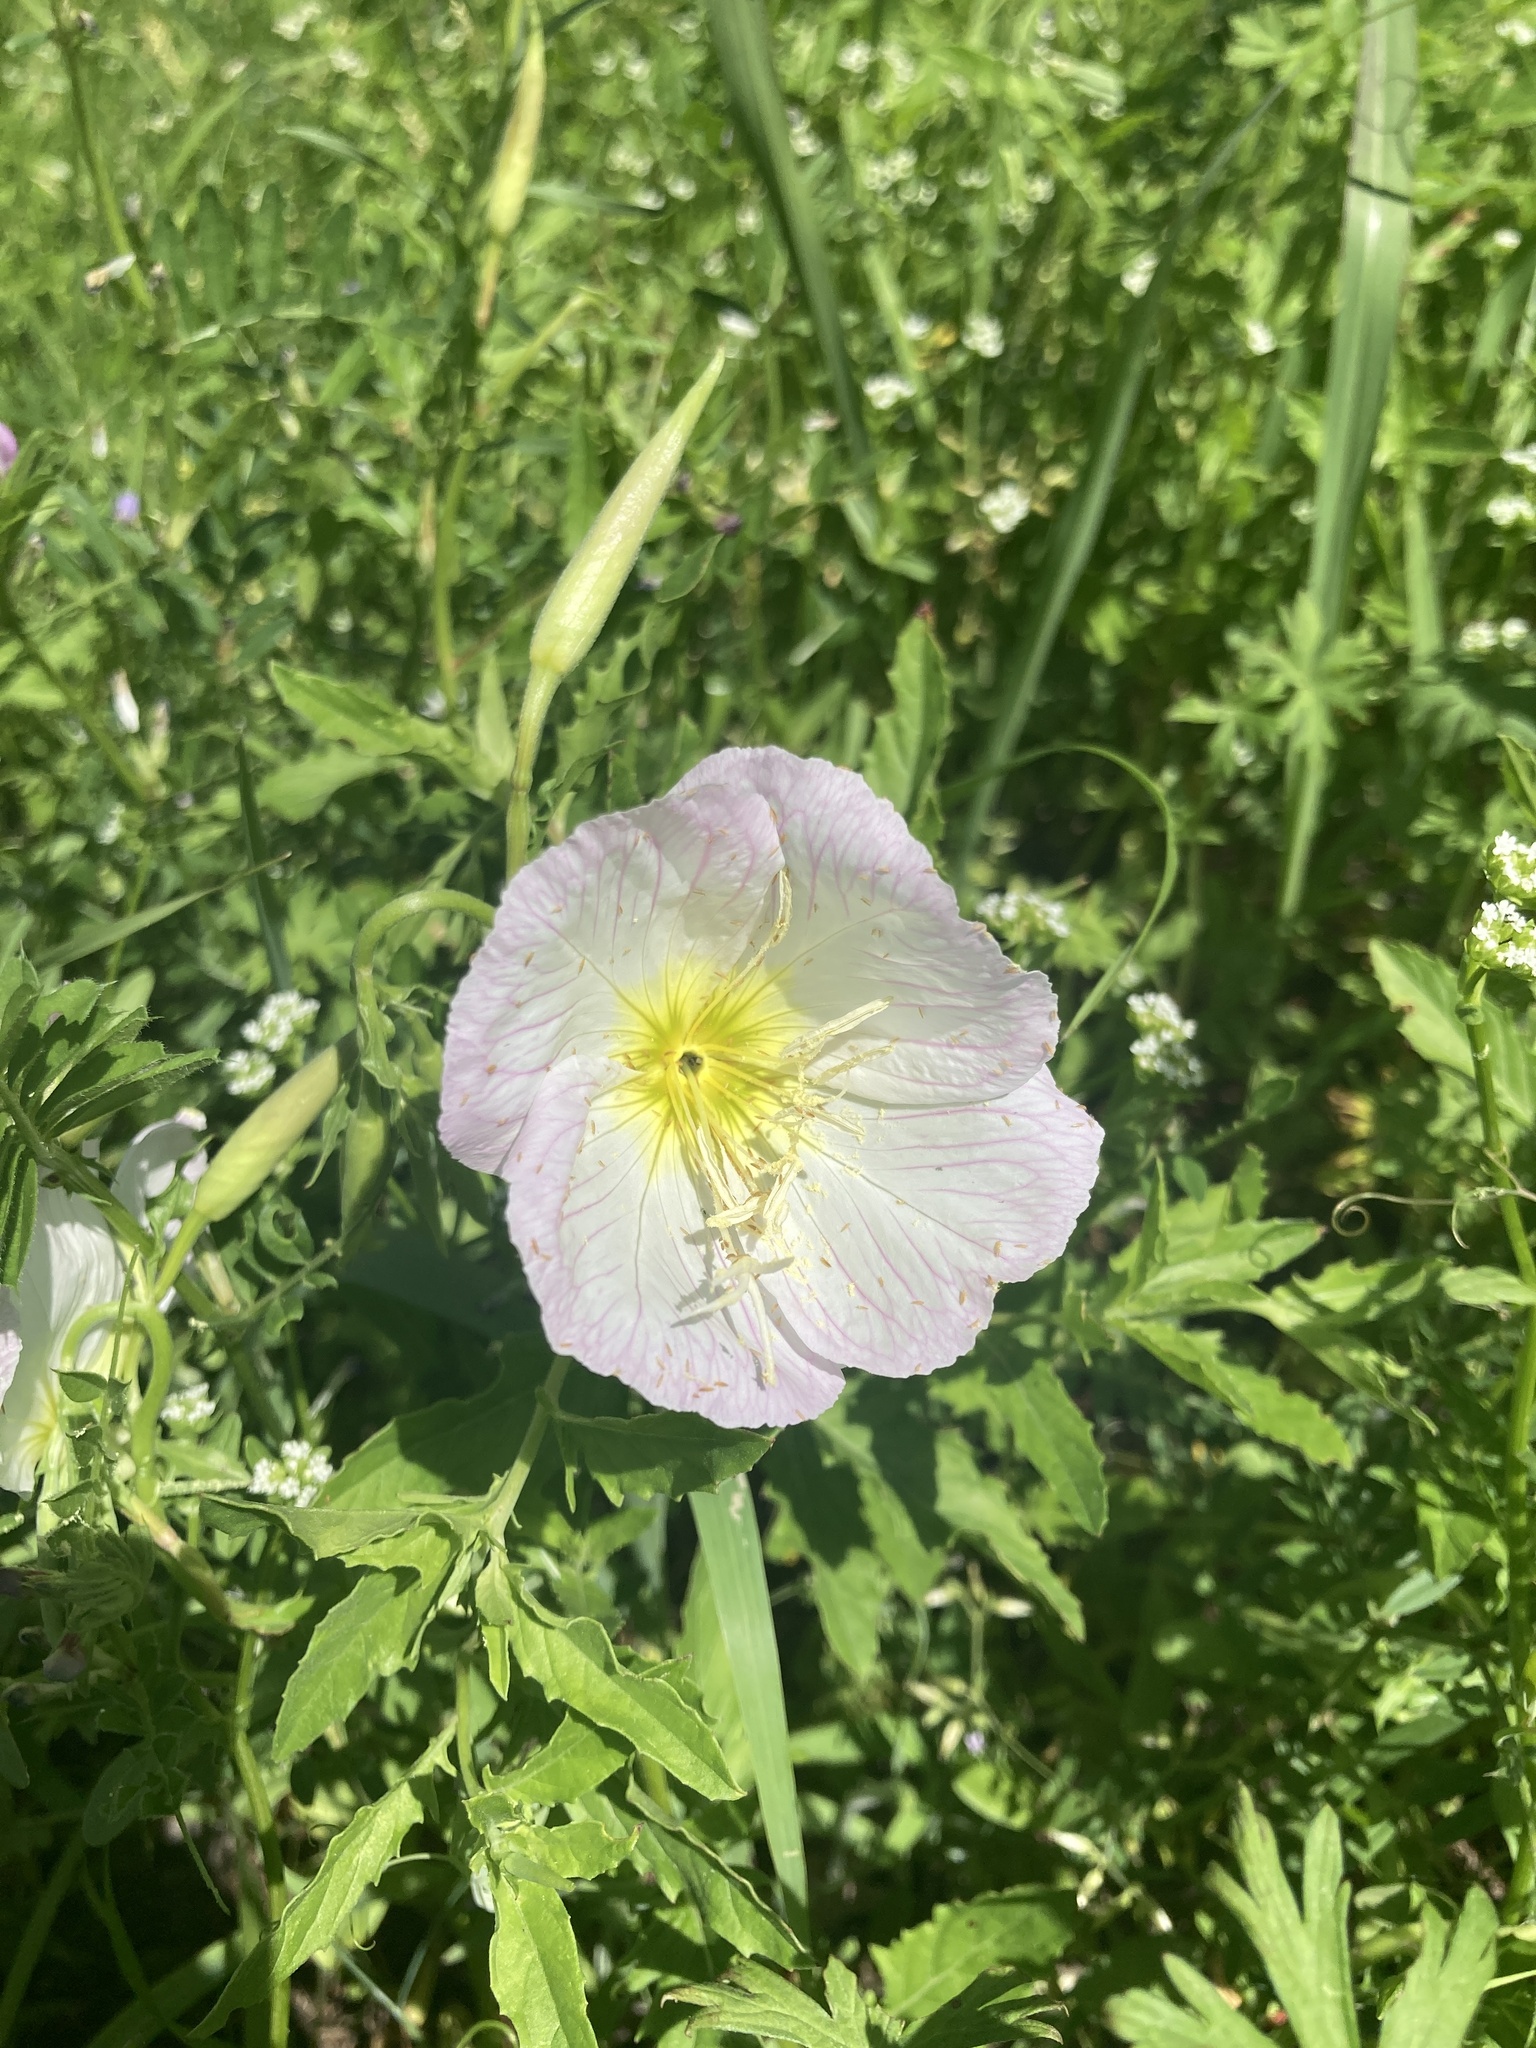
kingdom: Plantae
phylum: Tracheophyta
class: Magnoliopsida
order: Myrtales
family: Onagraceae
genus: Oenothera
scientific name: Oenothera speciosa
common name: White evening-primrose
